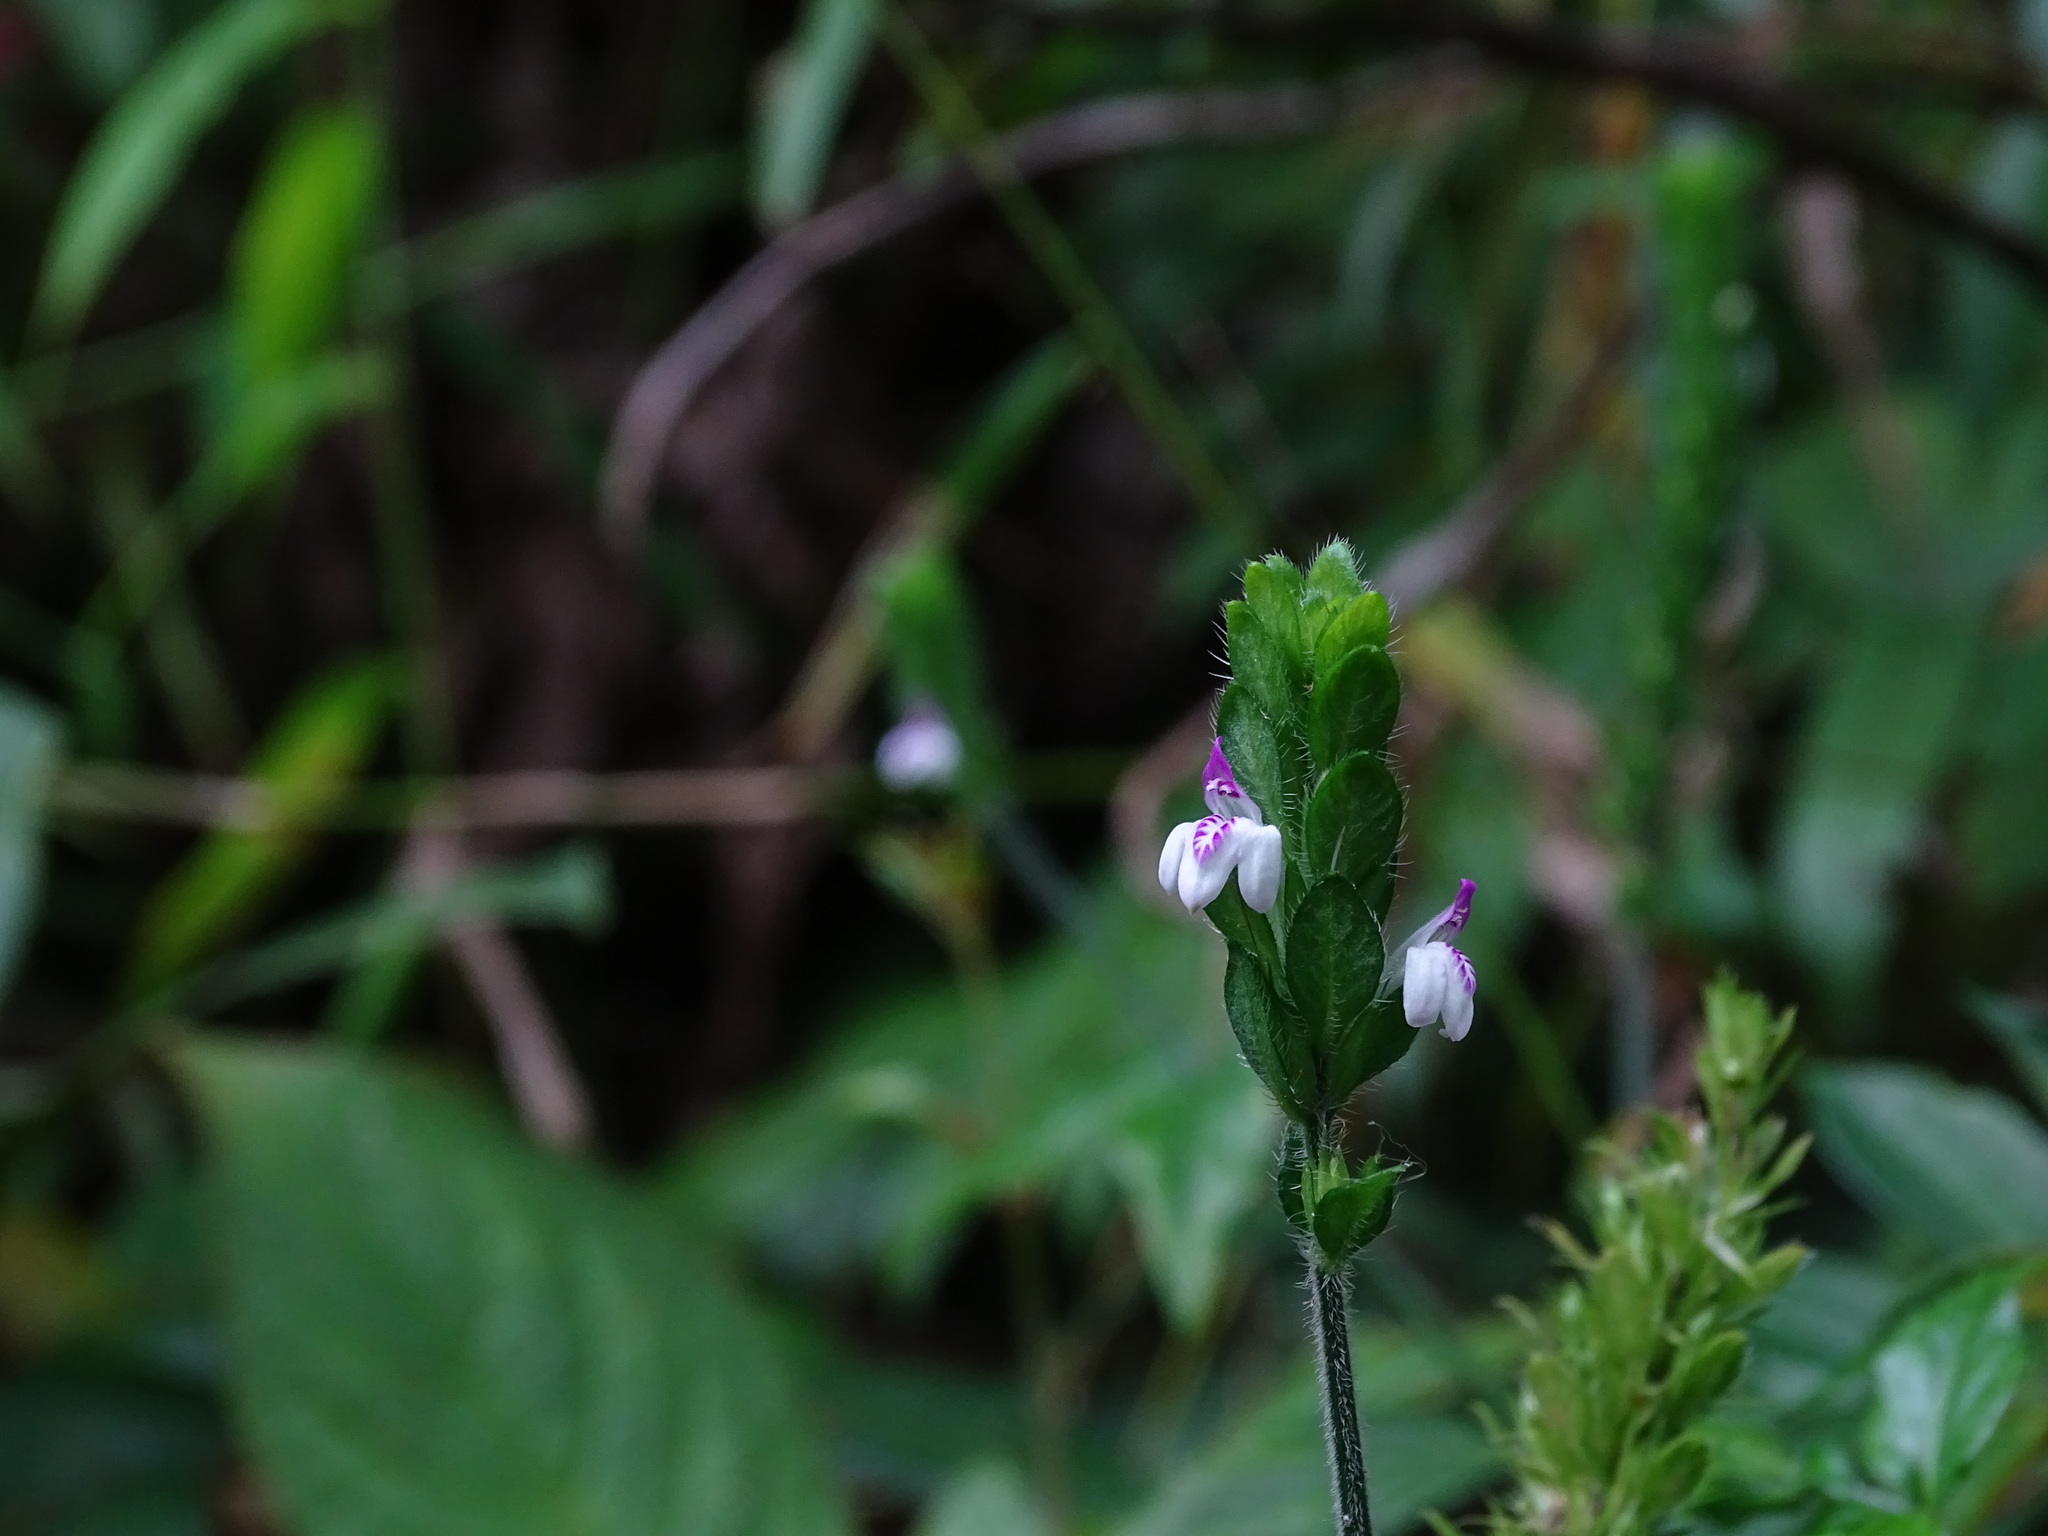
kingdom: Plantae
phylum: Tracheophyta
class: Magnoliopsida
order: Lamiales
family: Acanthaceae
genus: Dianthera
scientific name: Dianthera candelariae
